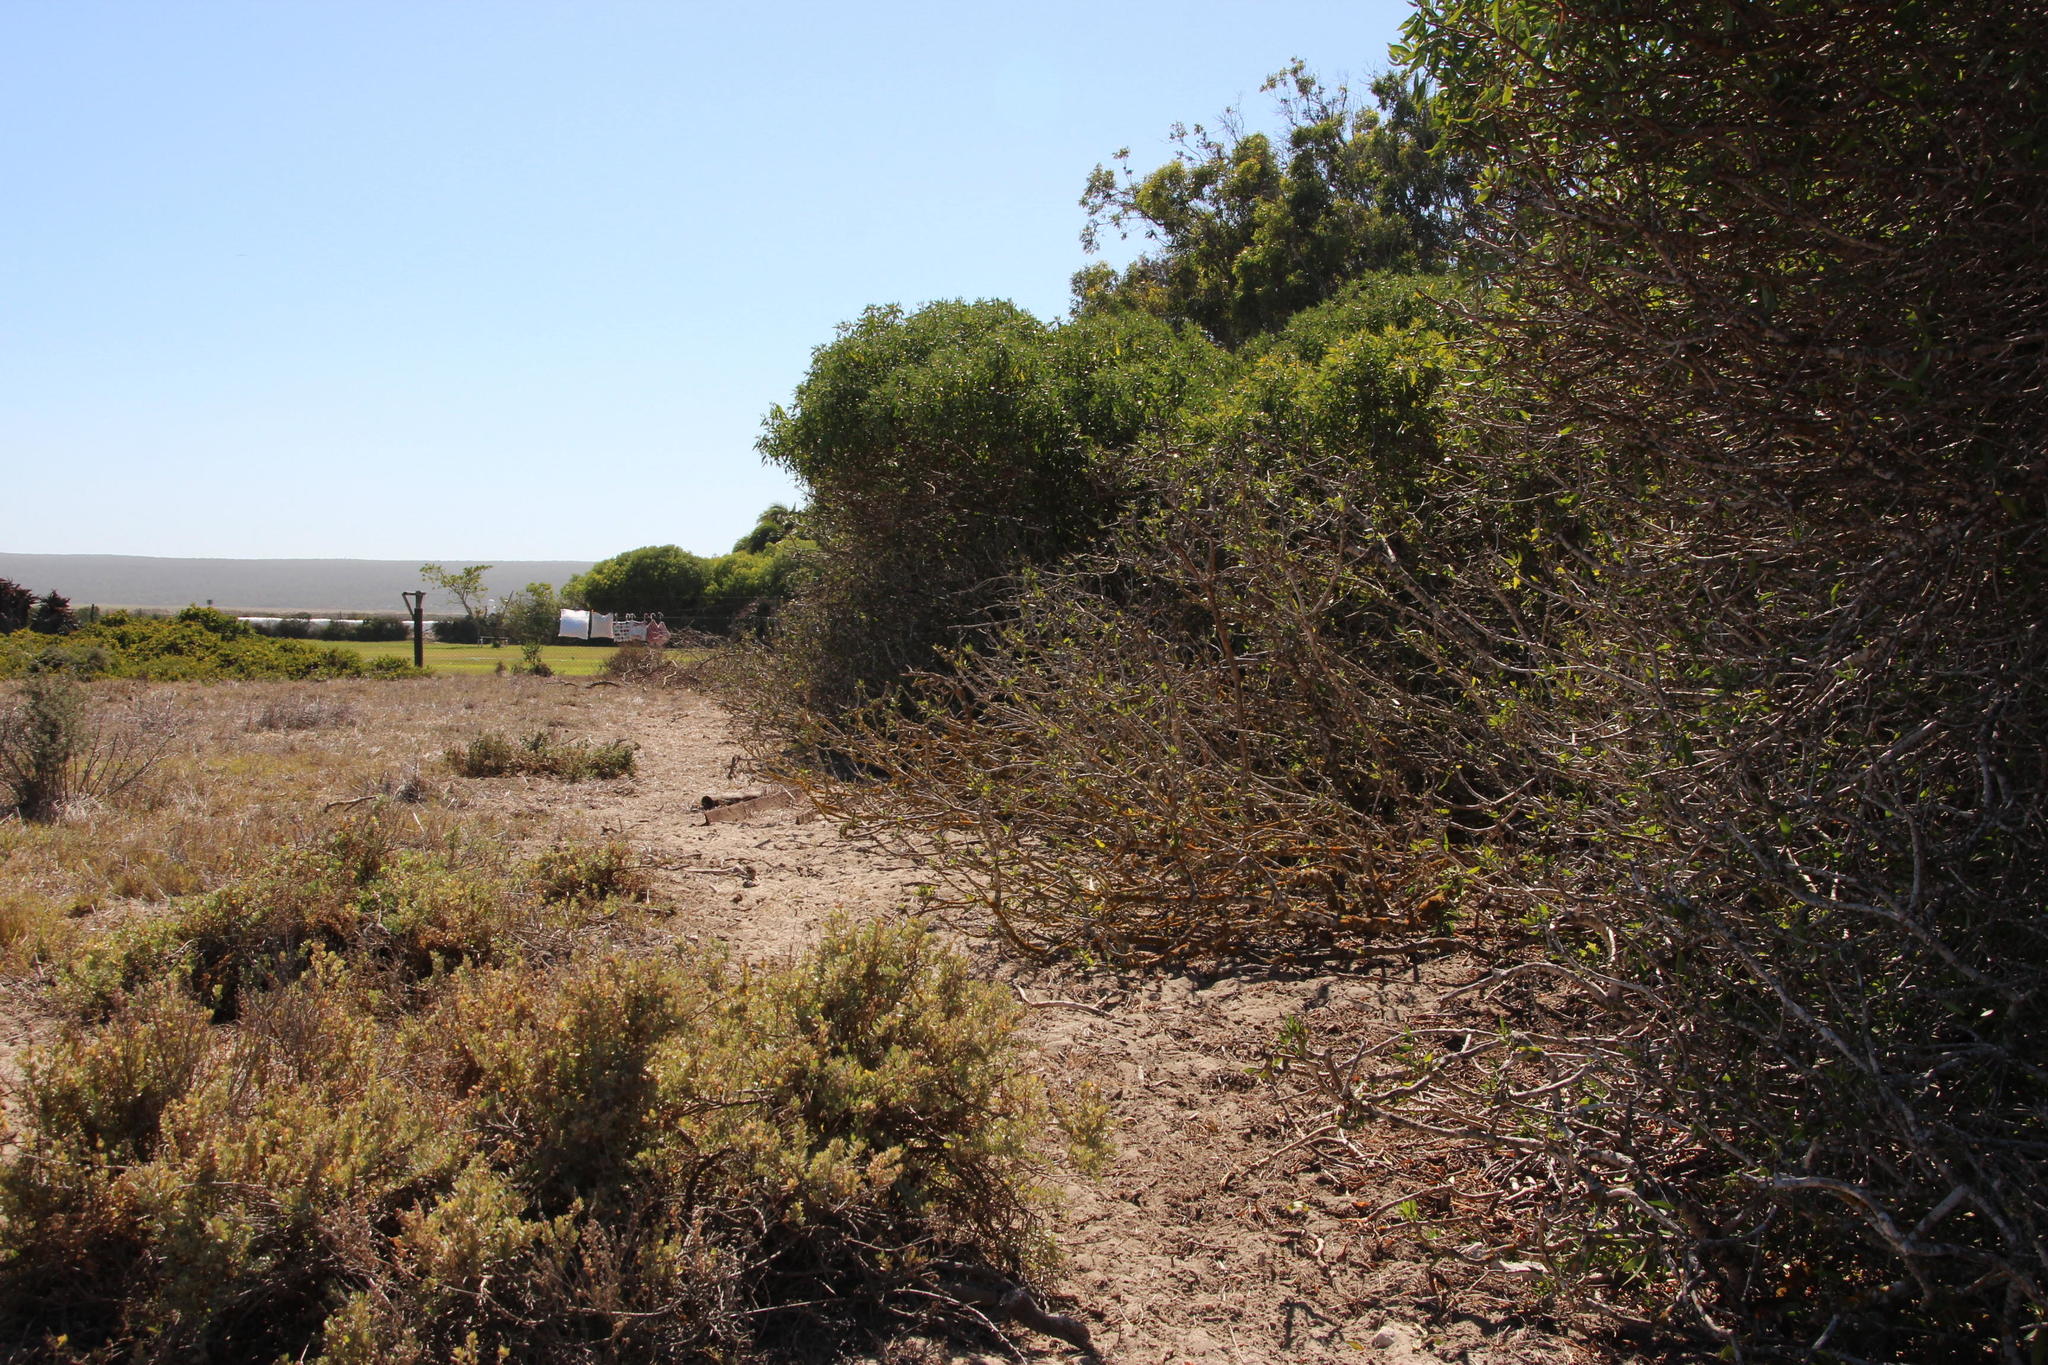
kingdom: Animalia
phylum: Chordata
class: Mammalia
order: Artiodactyla
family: Bovidae
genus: Taurotragus
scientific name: Taurotragus oryx
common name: Common eland
